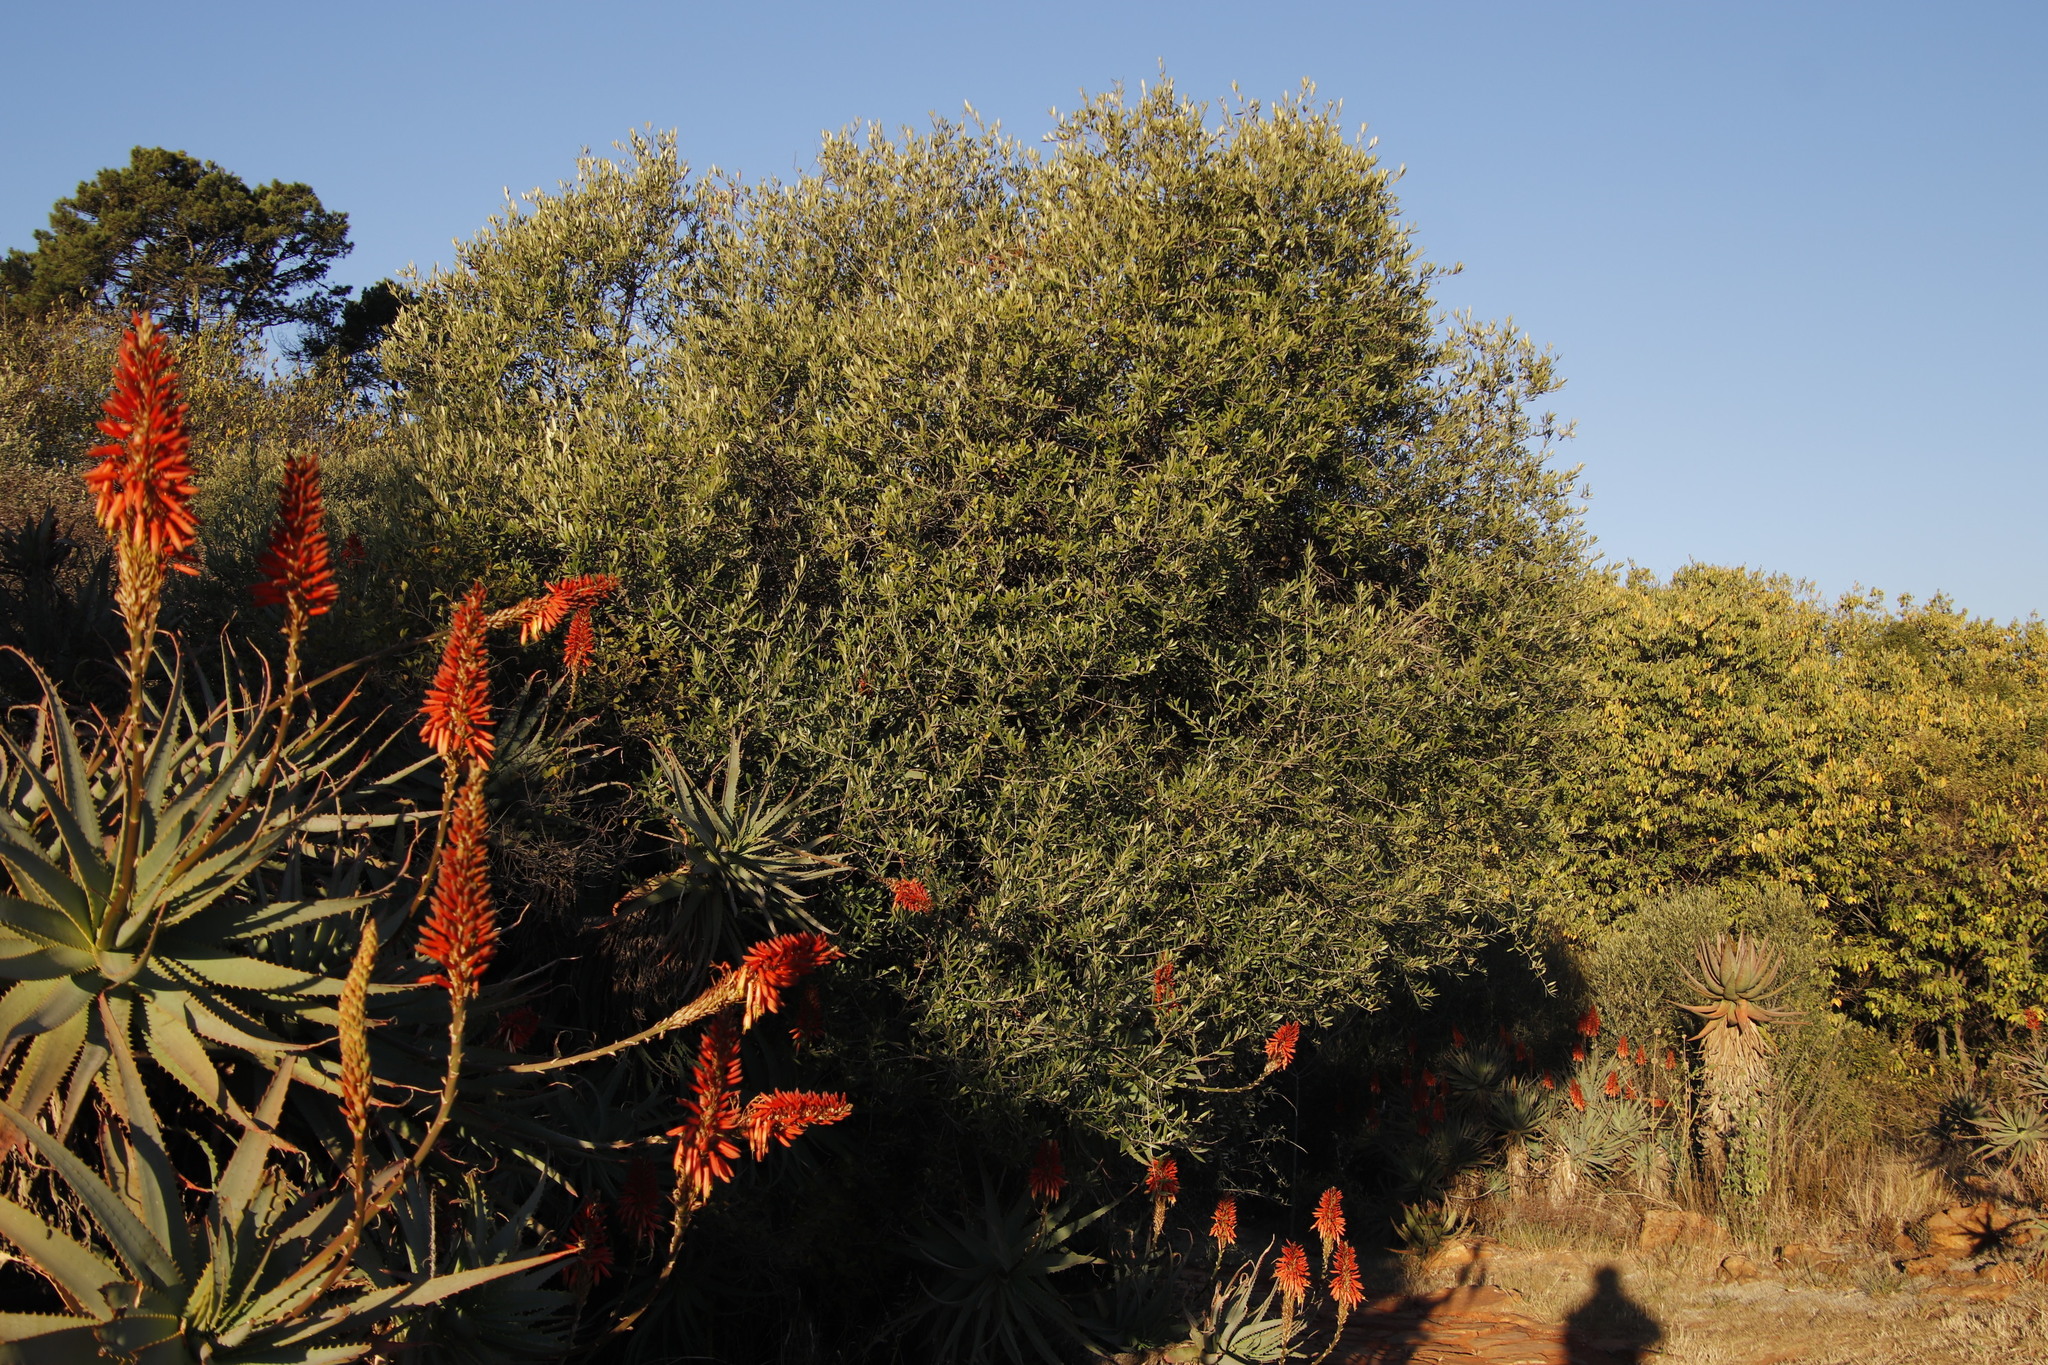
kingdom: Plantae
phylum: Tracheophyta
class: Magnoliopsida
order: Lamiales
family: Oleaceae
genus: Olea
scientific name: Olea europaea
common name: Olive
